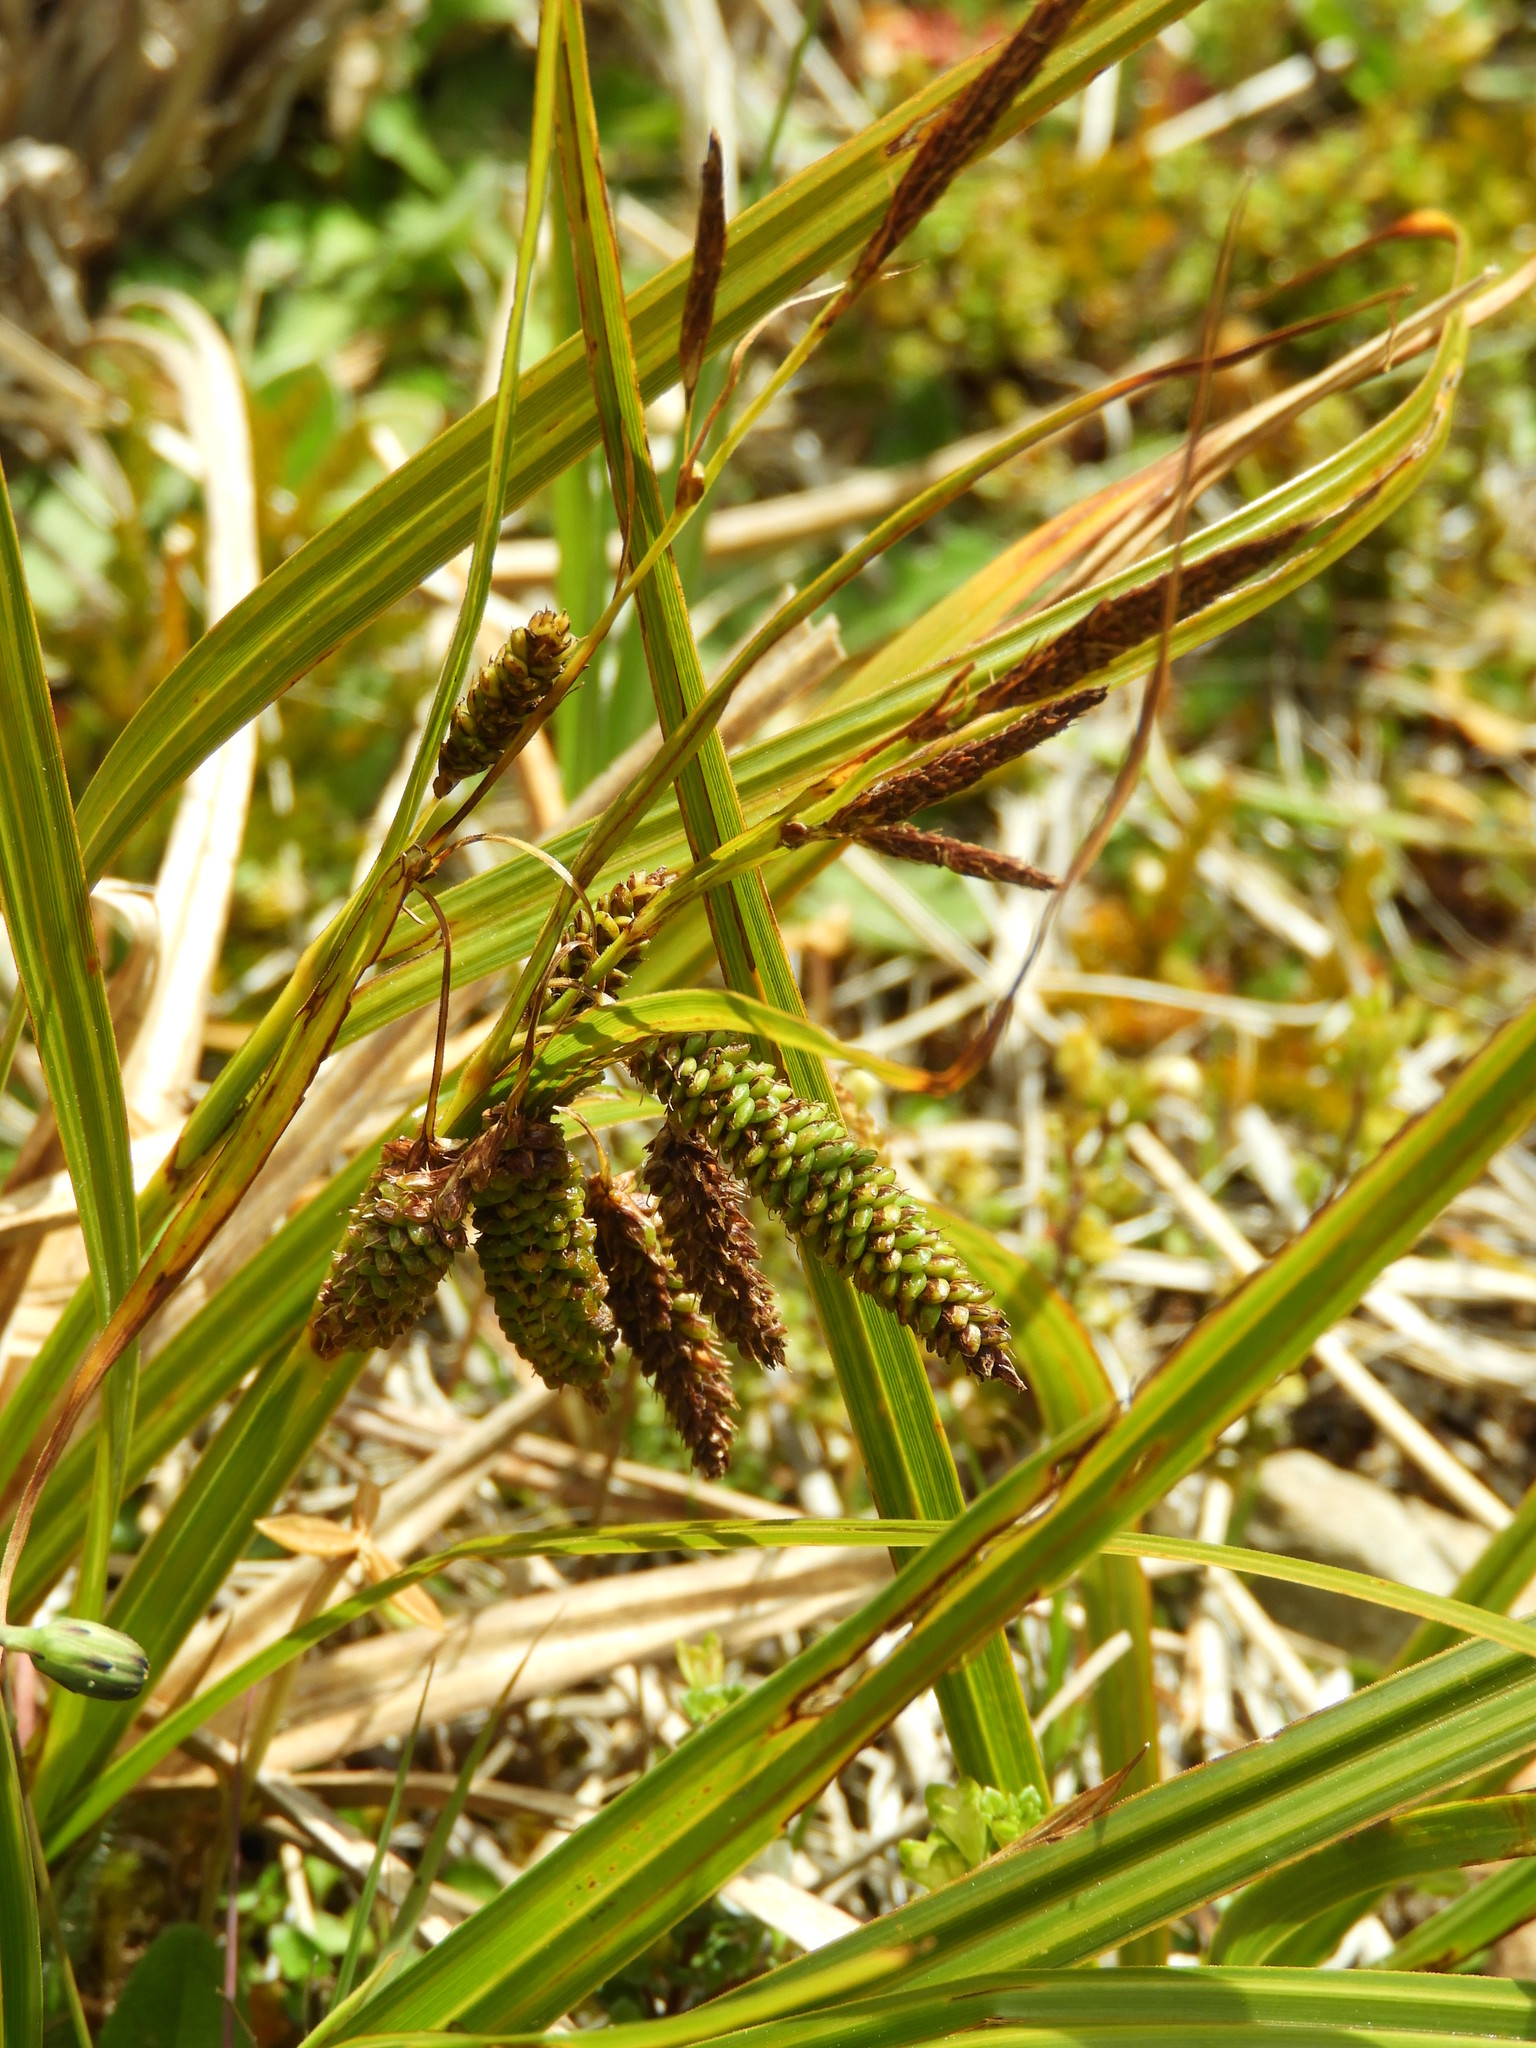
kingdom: Plantae
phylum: Tracheophyta
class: Liliopsida
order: Poales
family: Cyperaceae
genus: Carex
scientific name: Carex coriacea
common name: Rautahi
